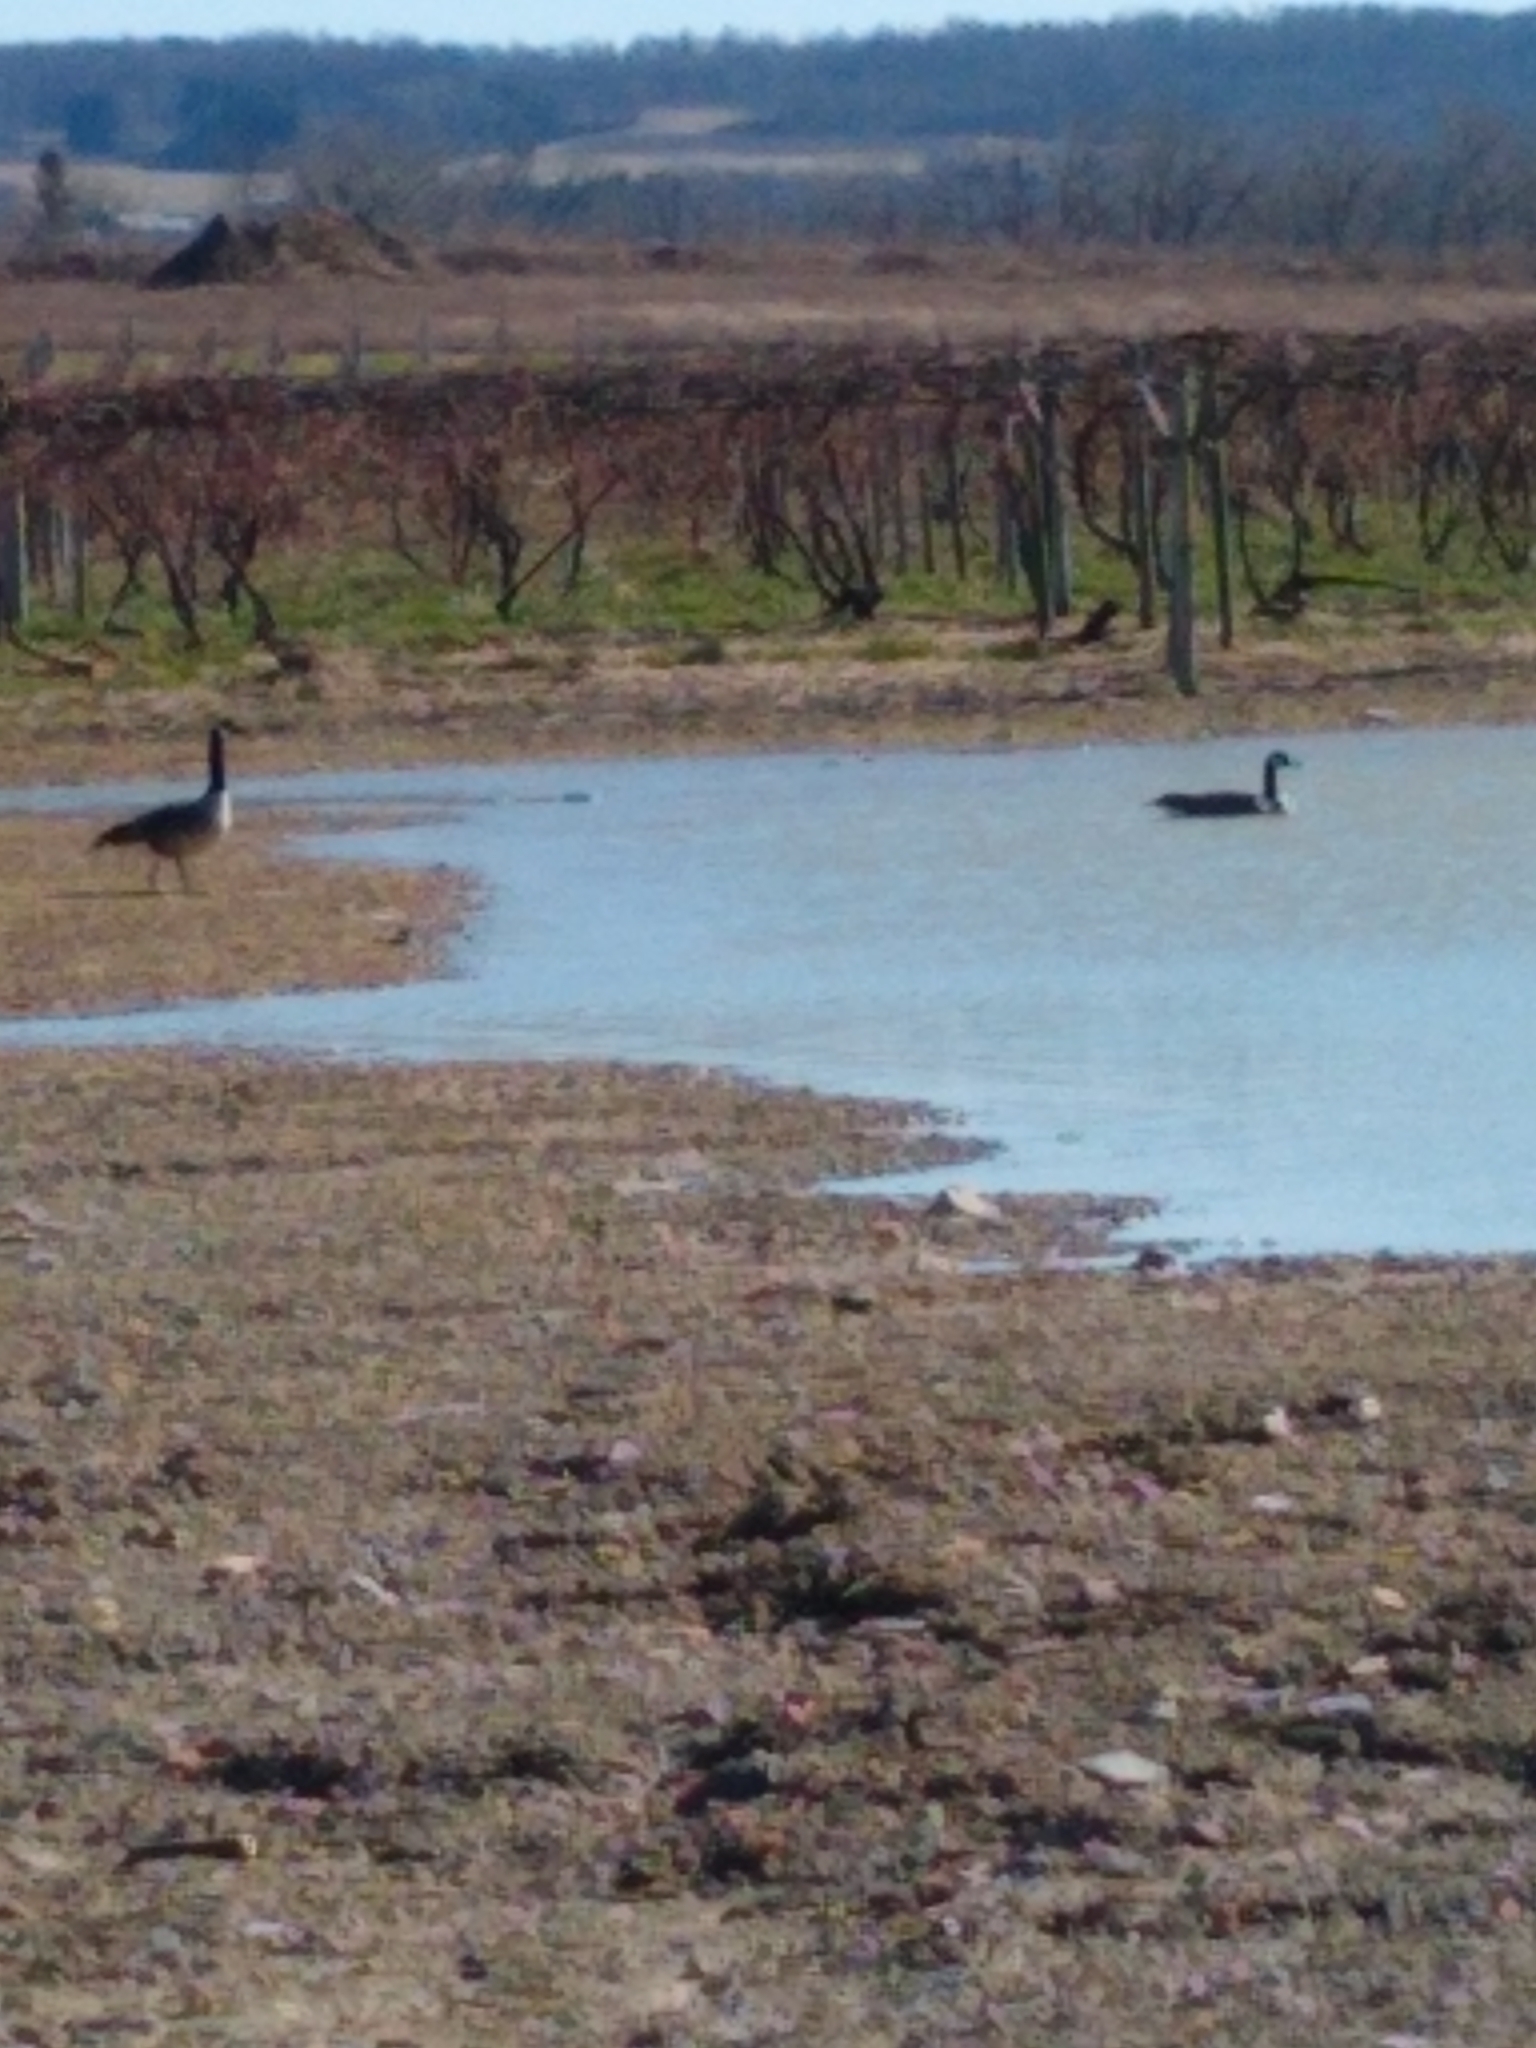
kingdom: Animalia
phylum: Chordata
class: Aves
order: Anseriformes
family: Anatidae
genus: Branta
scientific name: Branta canadensis
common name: Canada goose
